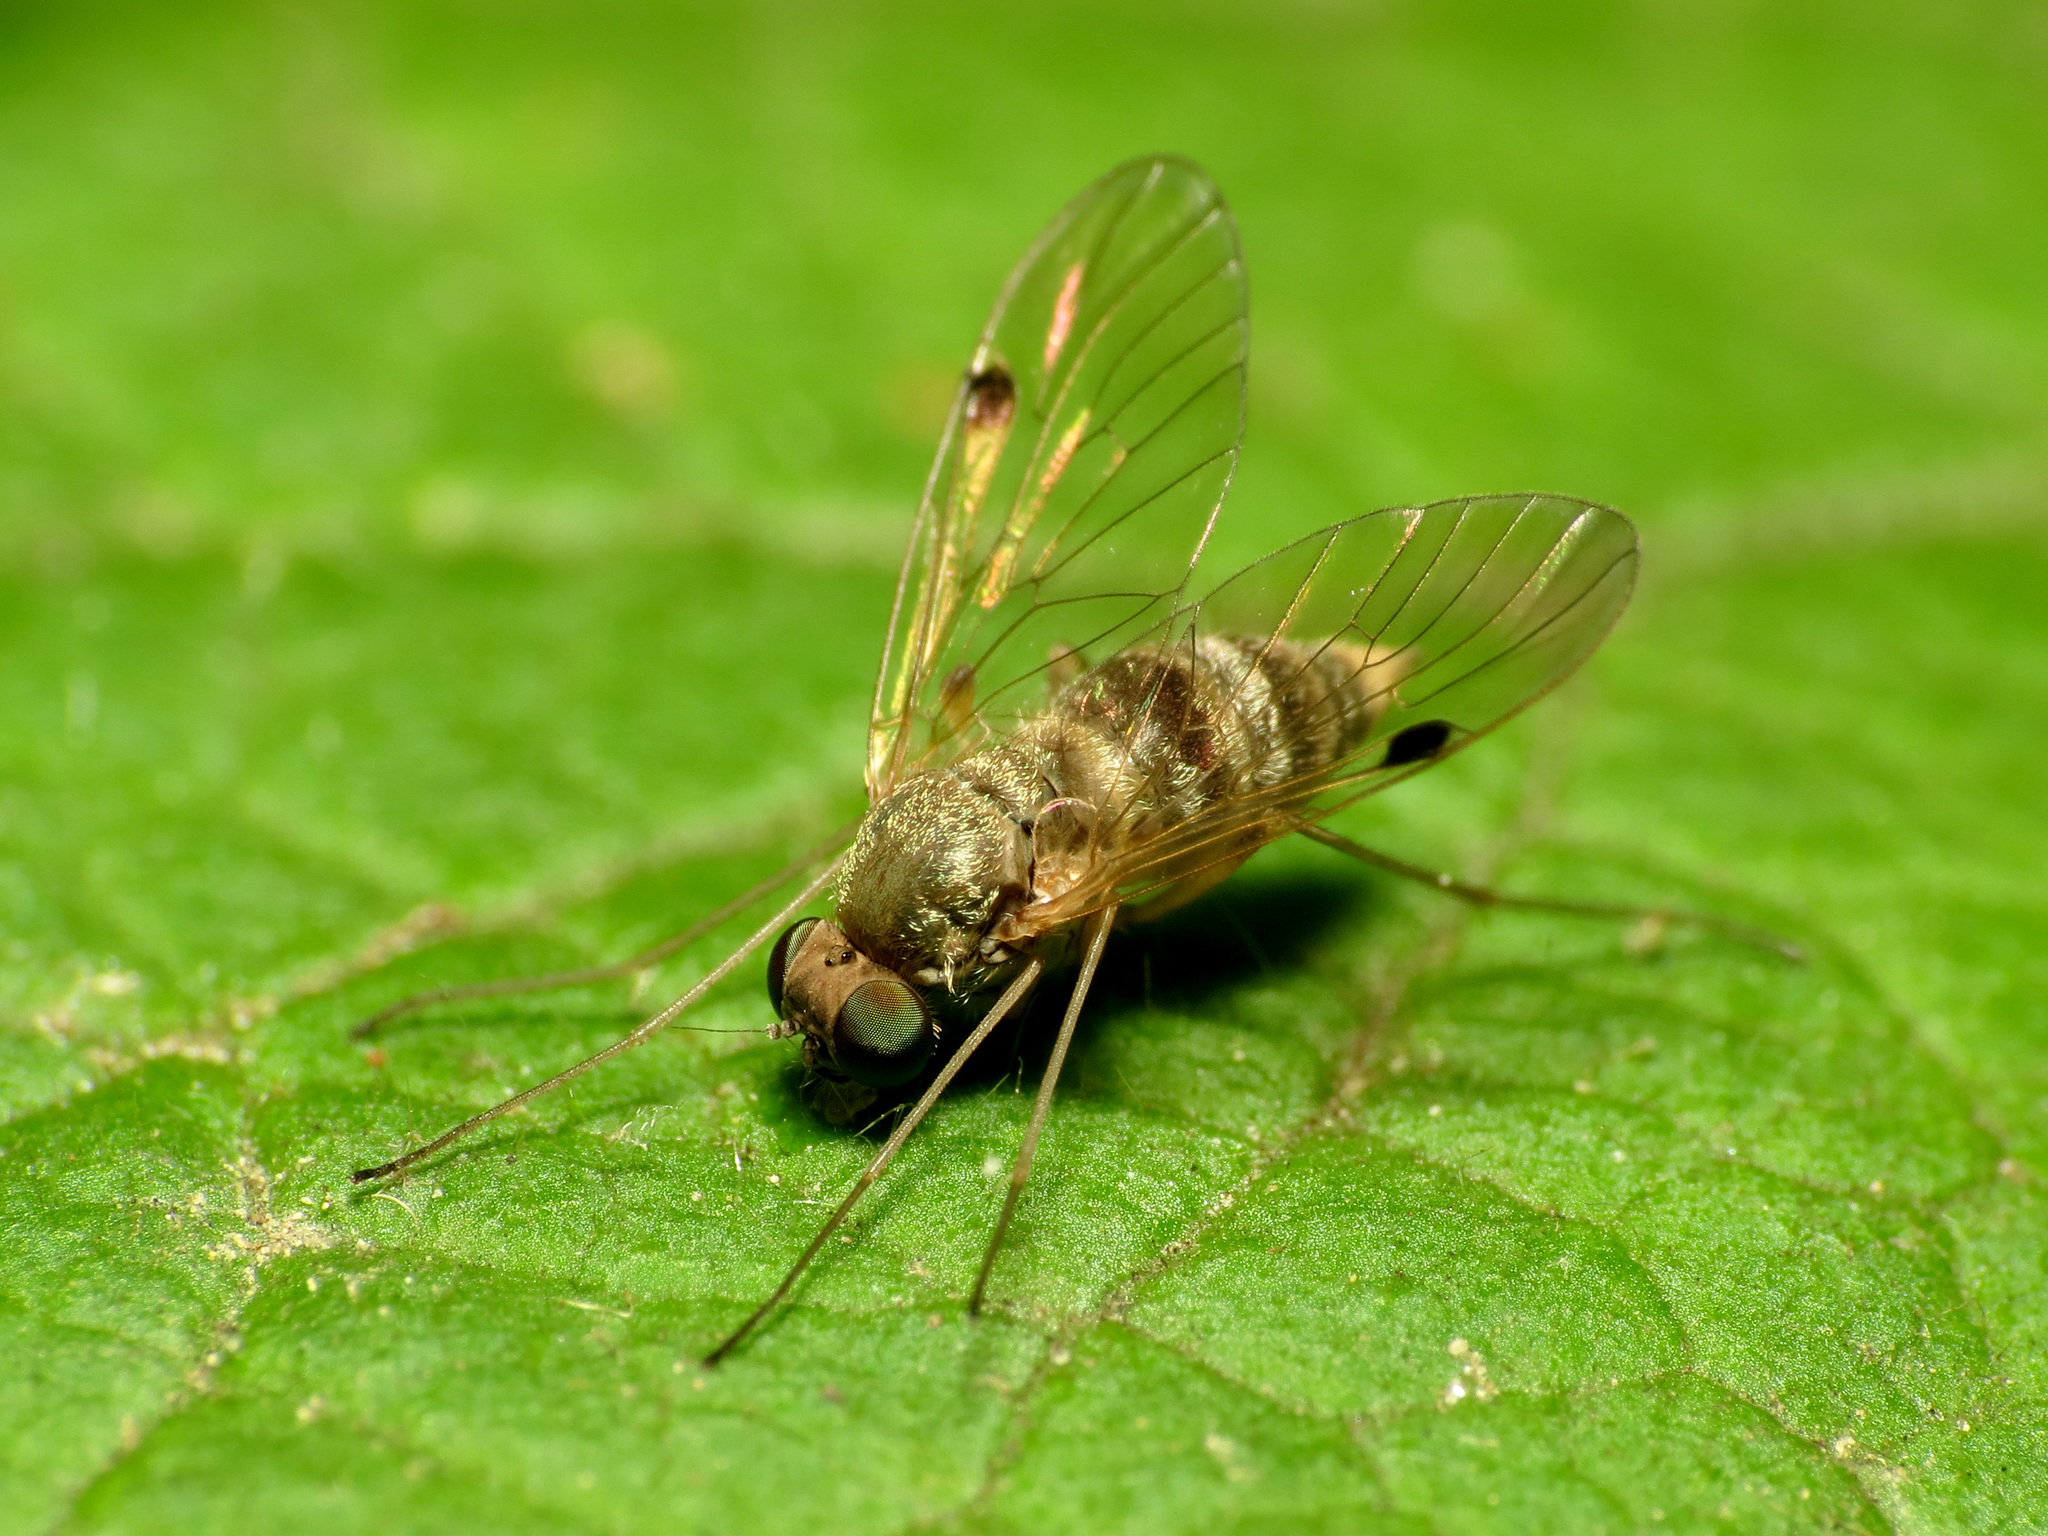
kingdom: Animalia
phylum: Arthropoda
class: Insecta
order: Diptera
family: Rhagionidae
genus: Chrysopilus
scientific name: Chrysopilus modestus
